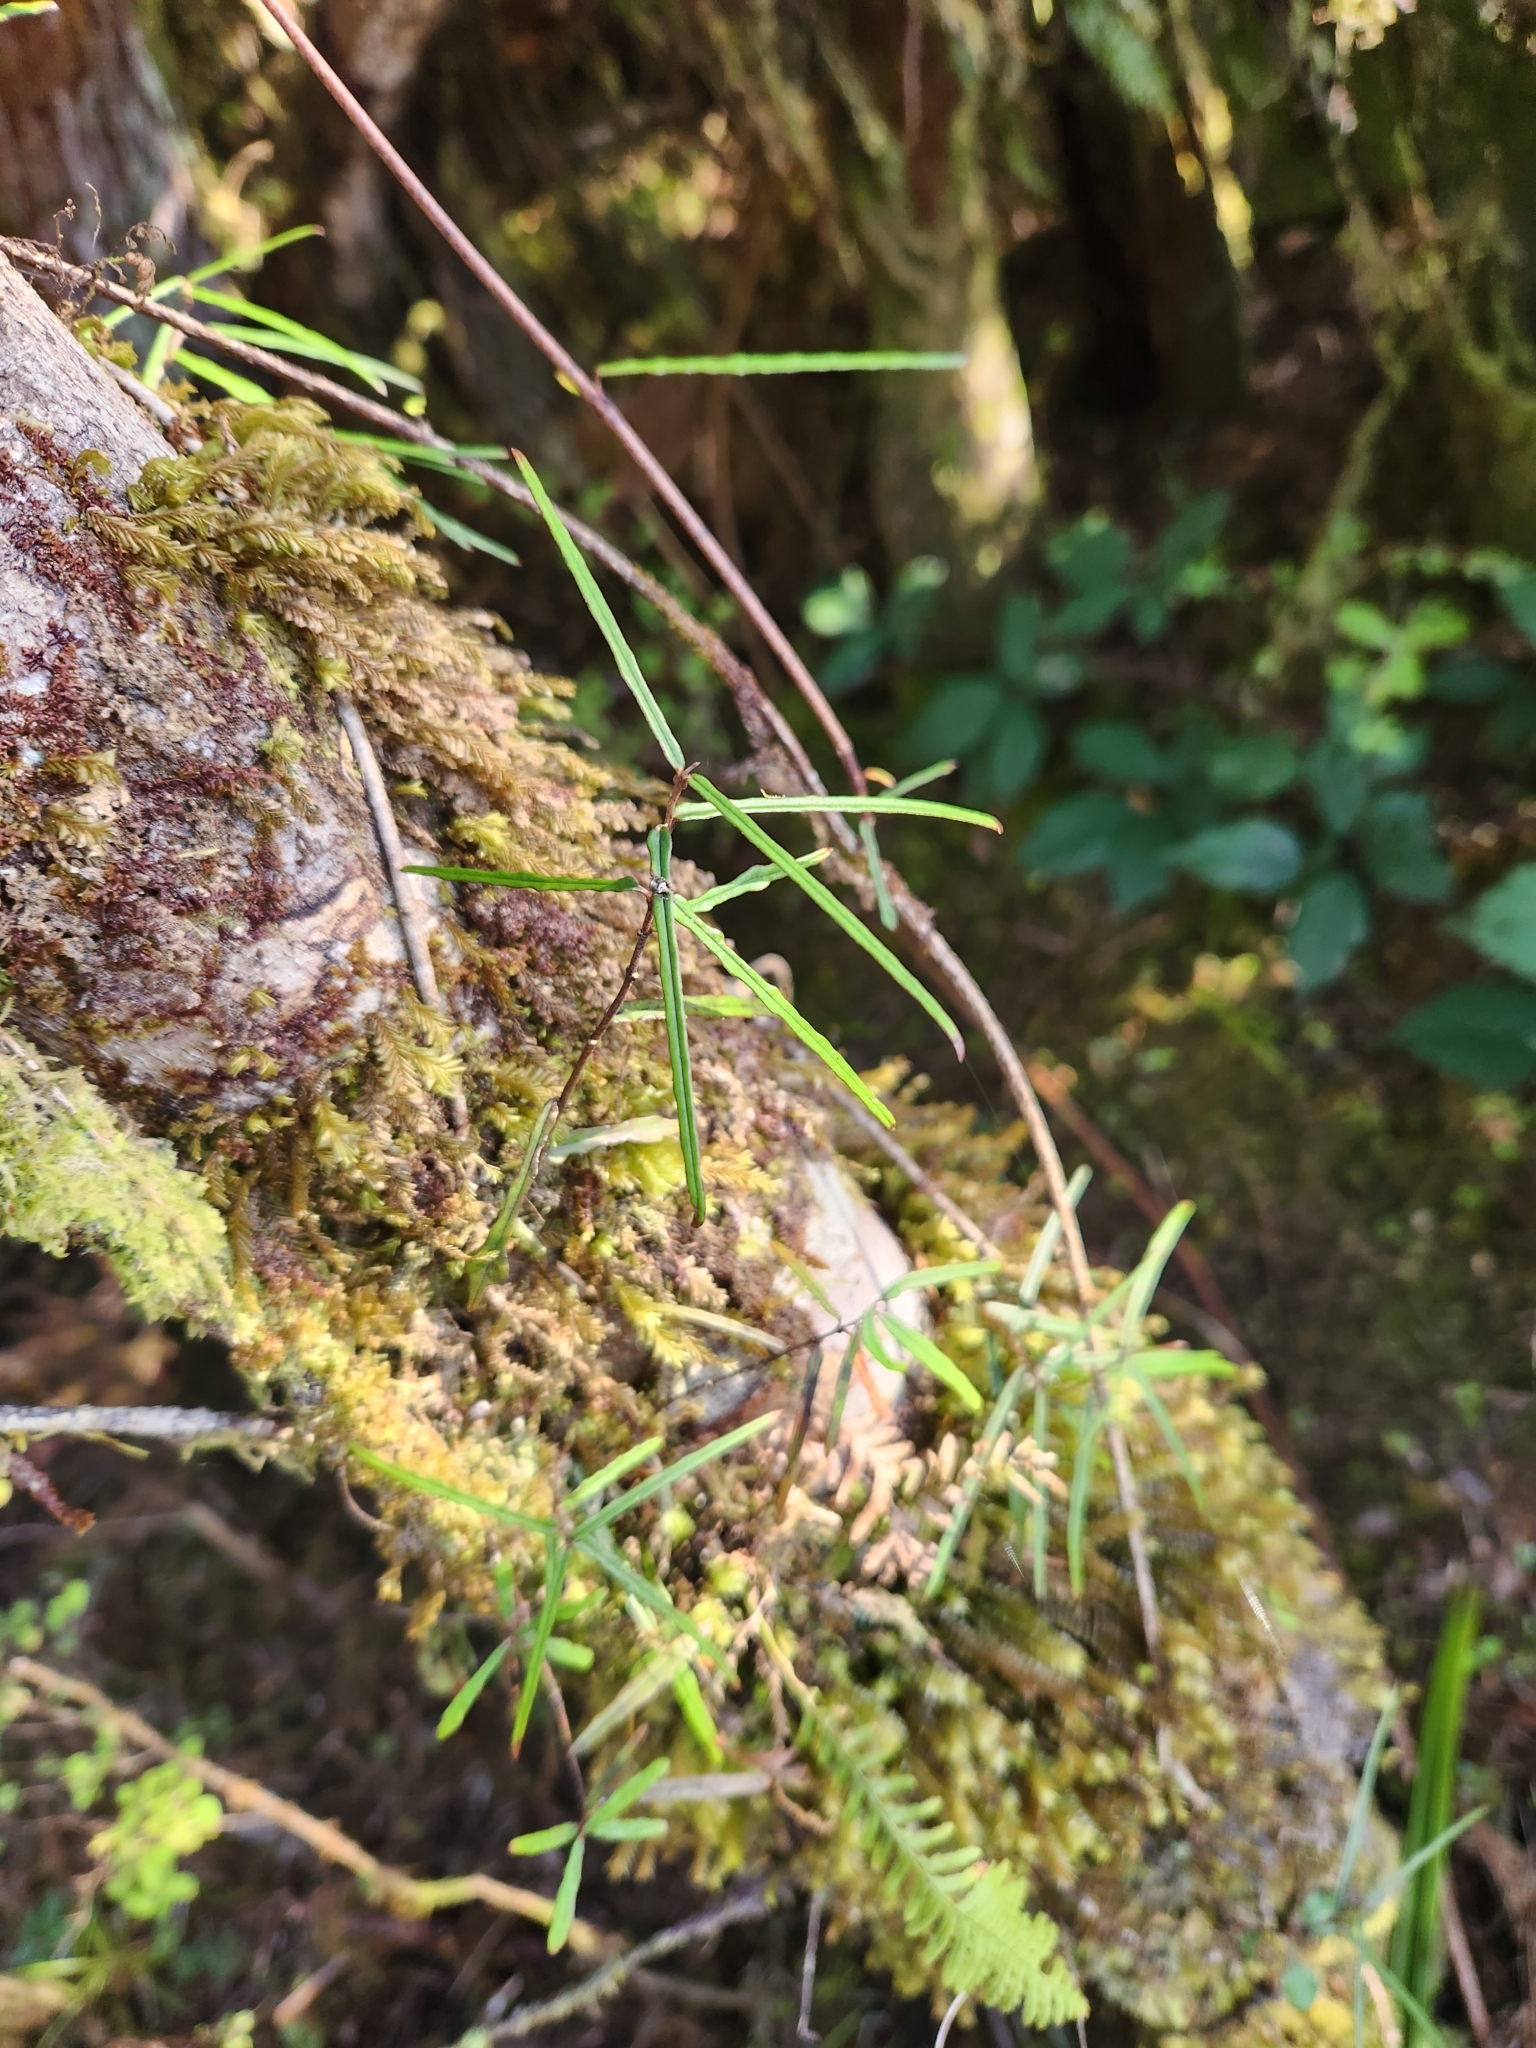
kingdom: Plantae
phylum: Tracheophyta
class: Magnoliopsida
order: Gentianales
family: Apocynaceae
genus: Parsonsia
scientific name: Parsonsia capsularis
